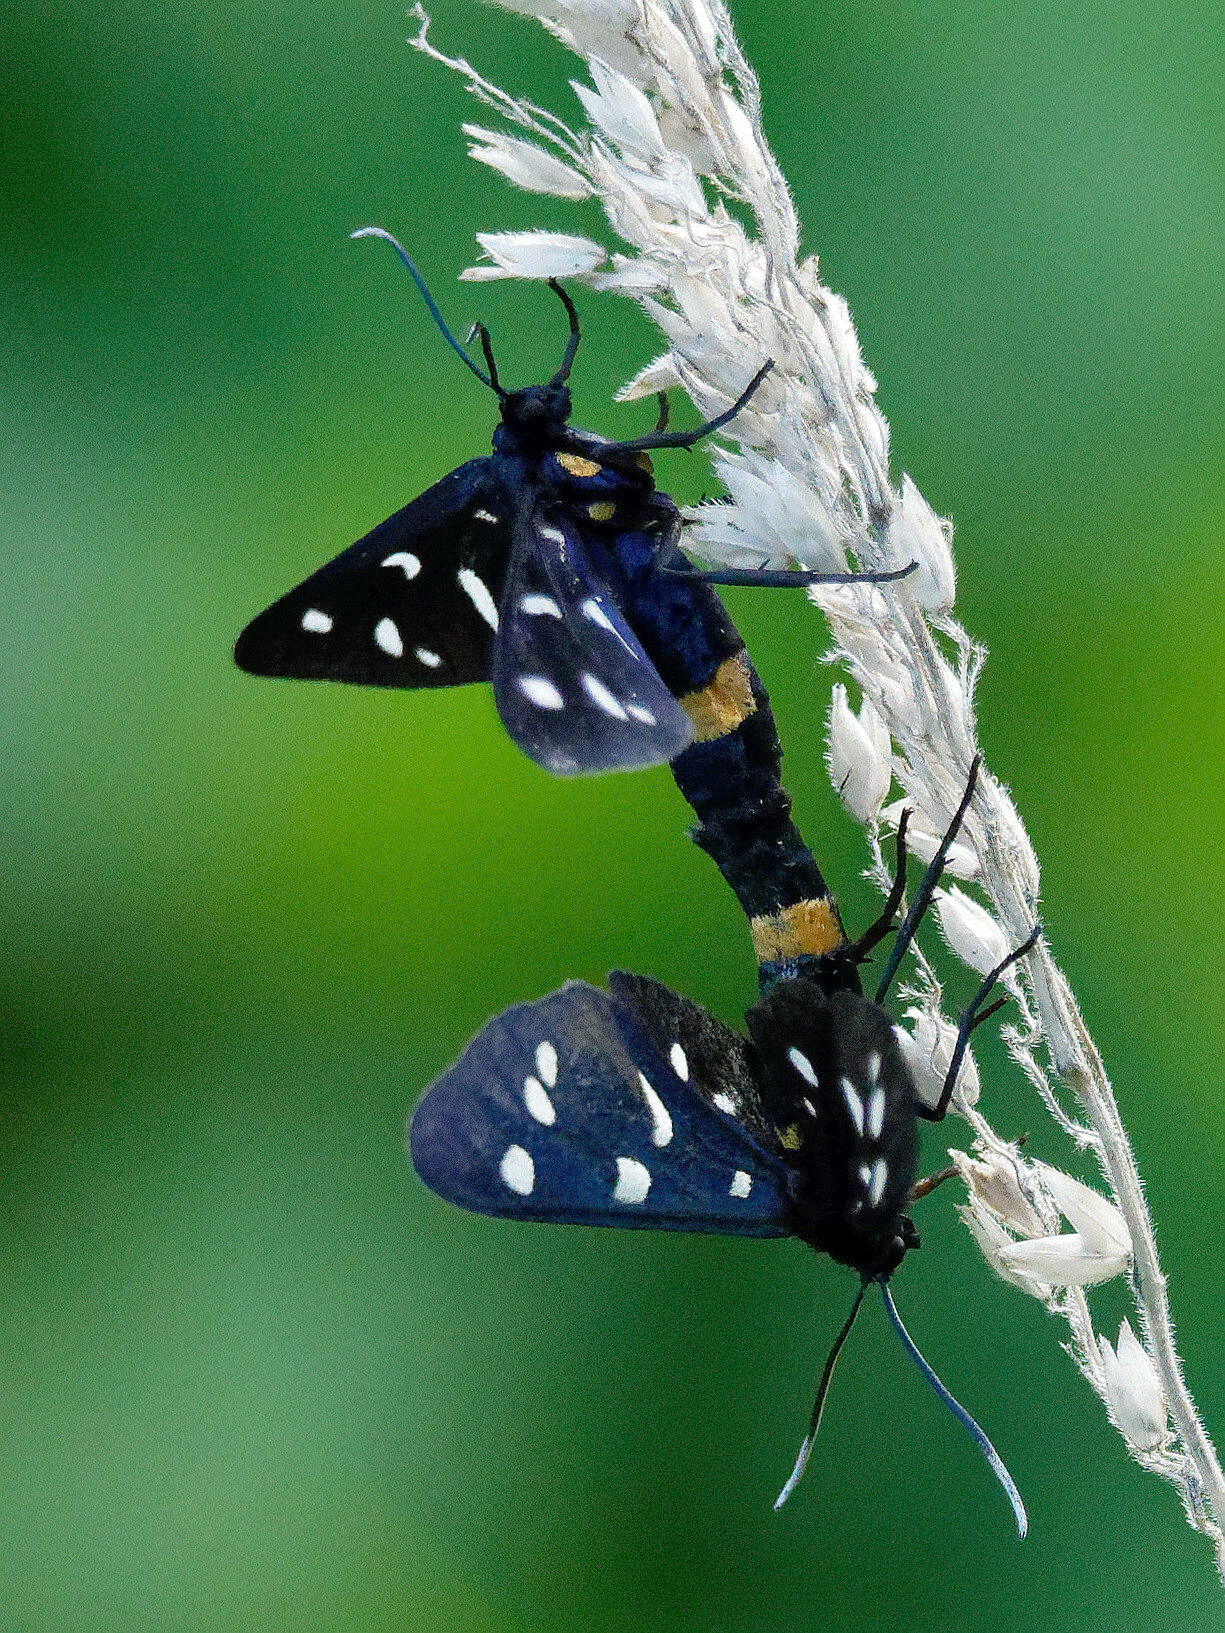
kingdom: Animalia
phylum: Arthropoda
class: Insecta
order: Lepidoptera
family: Erebidae
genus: Amata
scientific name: Amata phegea
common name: Nine-spotted
